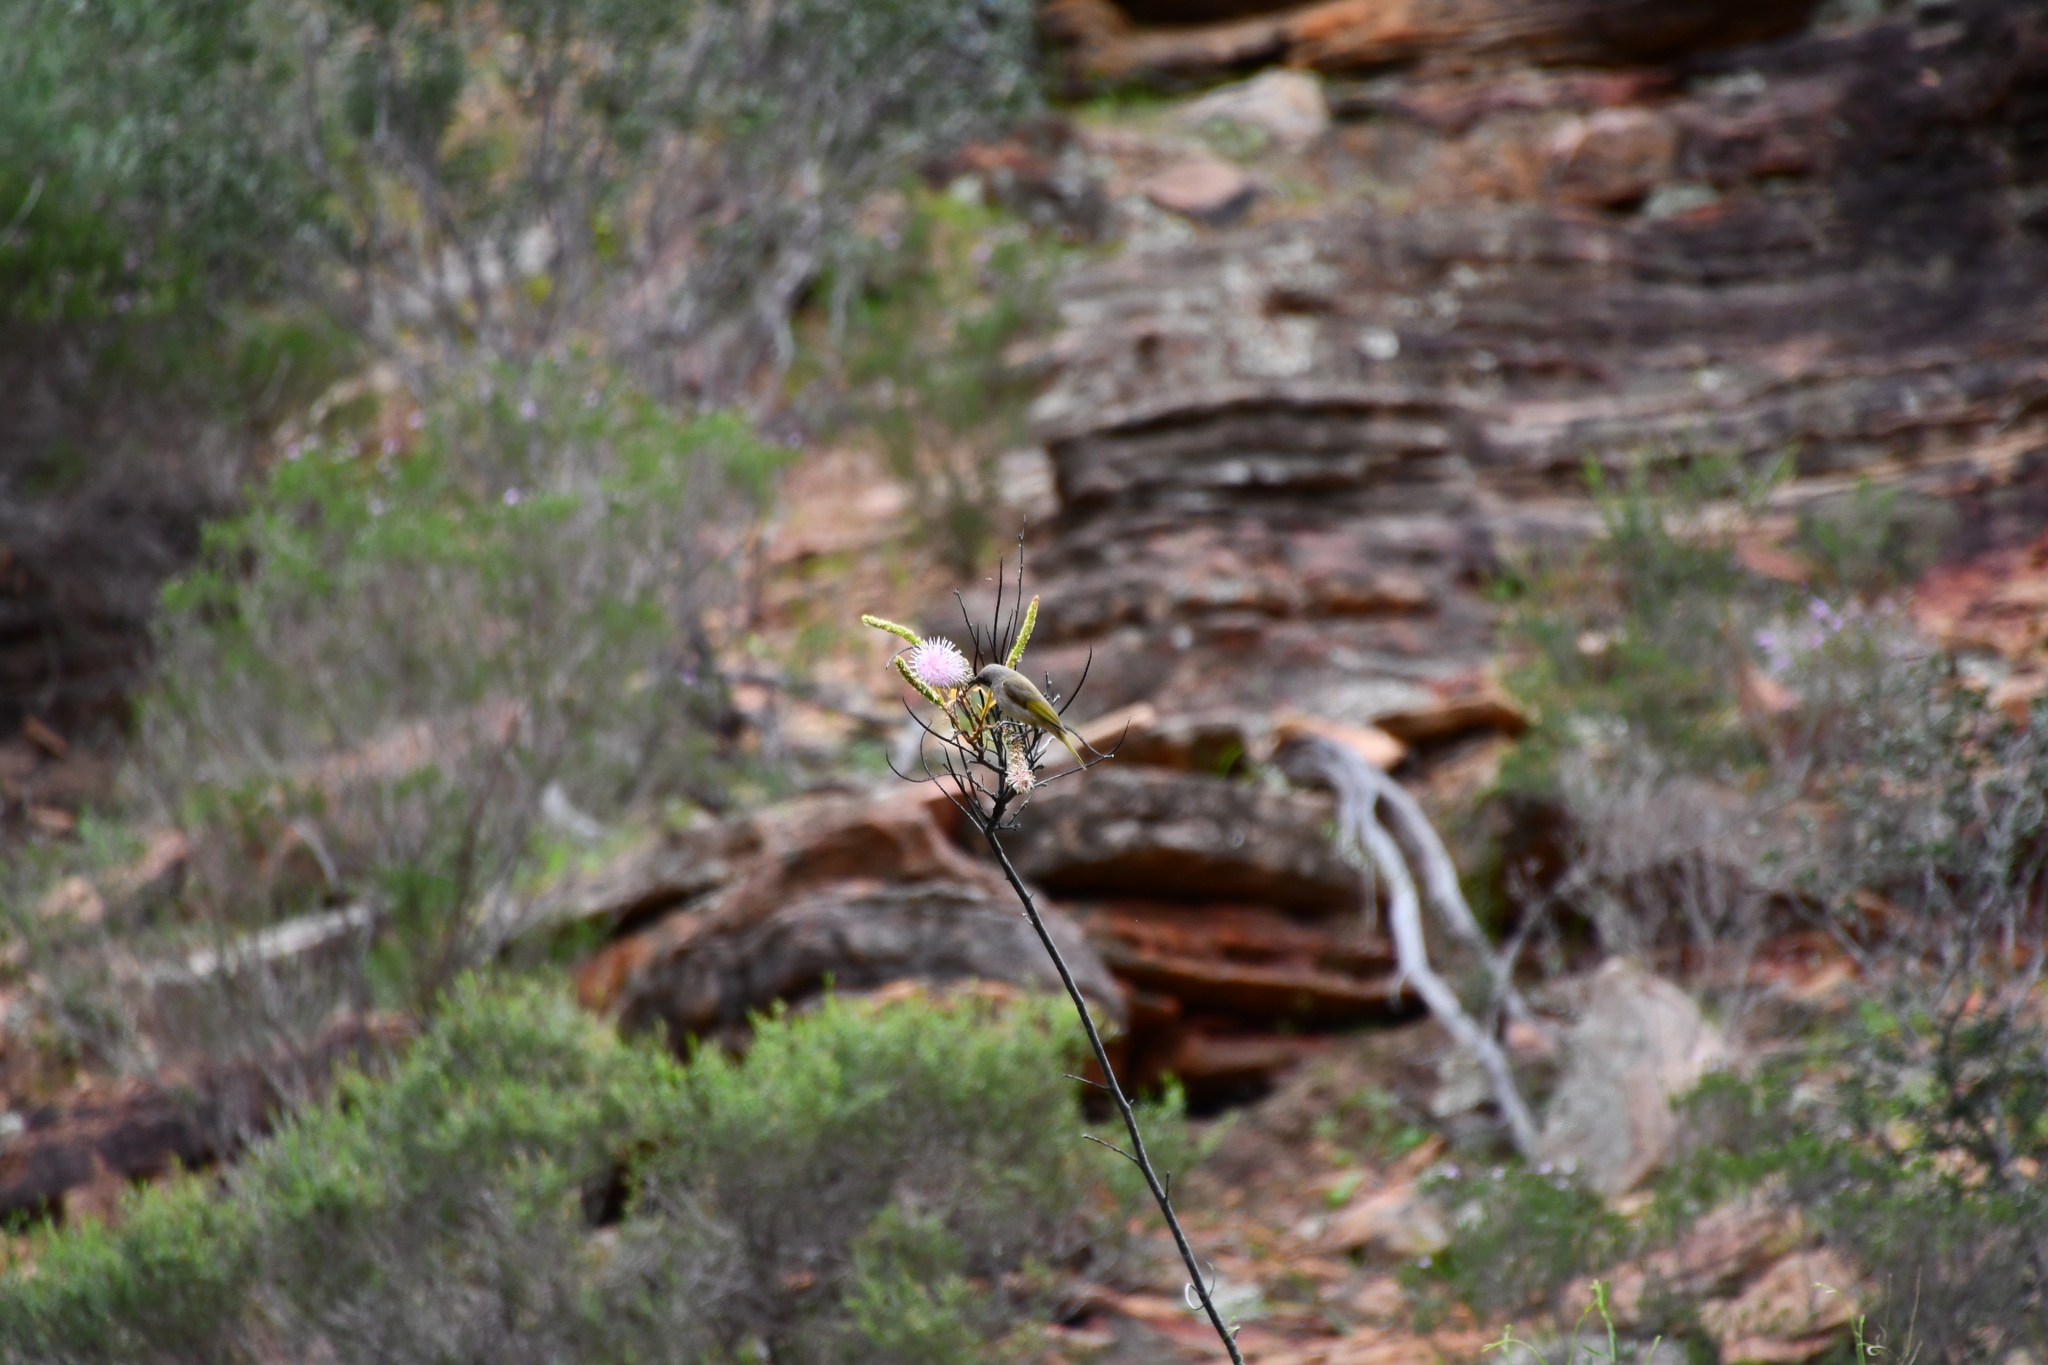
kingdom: Animalia
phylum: Chordata
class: Aves
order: Passeriformes
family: Meliphagidae
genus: Lichmera
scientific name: Lichmera indistincta
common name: Brown honeyeater
